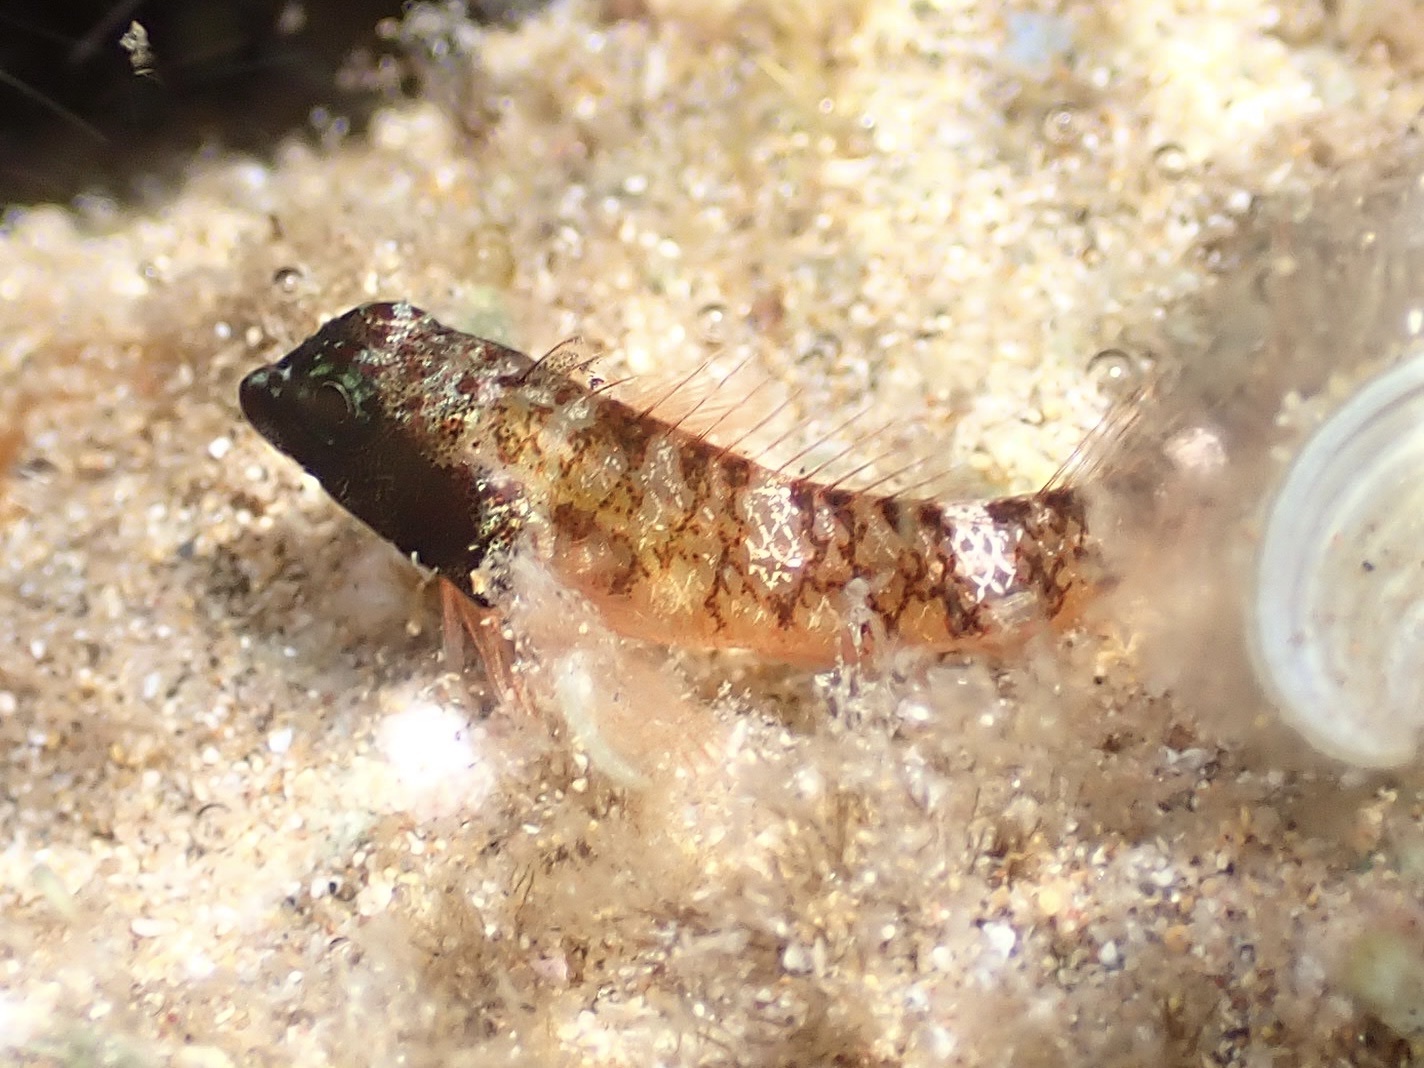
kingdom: Animalia
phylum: Chordata
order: Perciformes
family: Tripterygiidae
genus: Enneapterygius
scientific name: Enneapterygius atriceps
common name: Hawaiian blackhead triplefin
